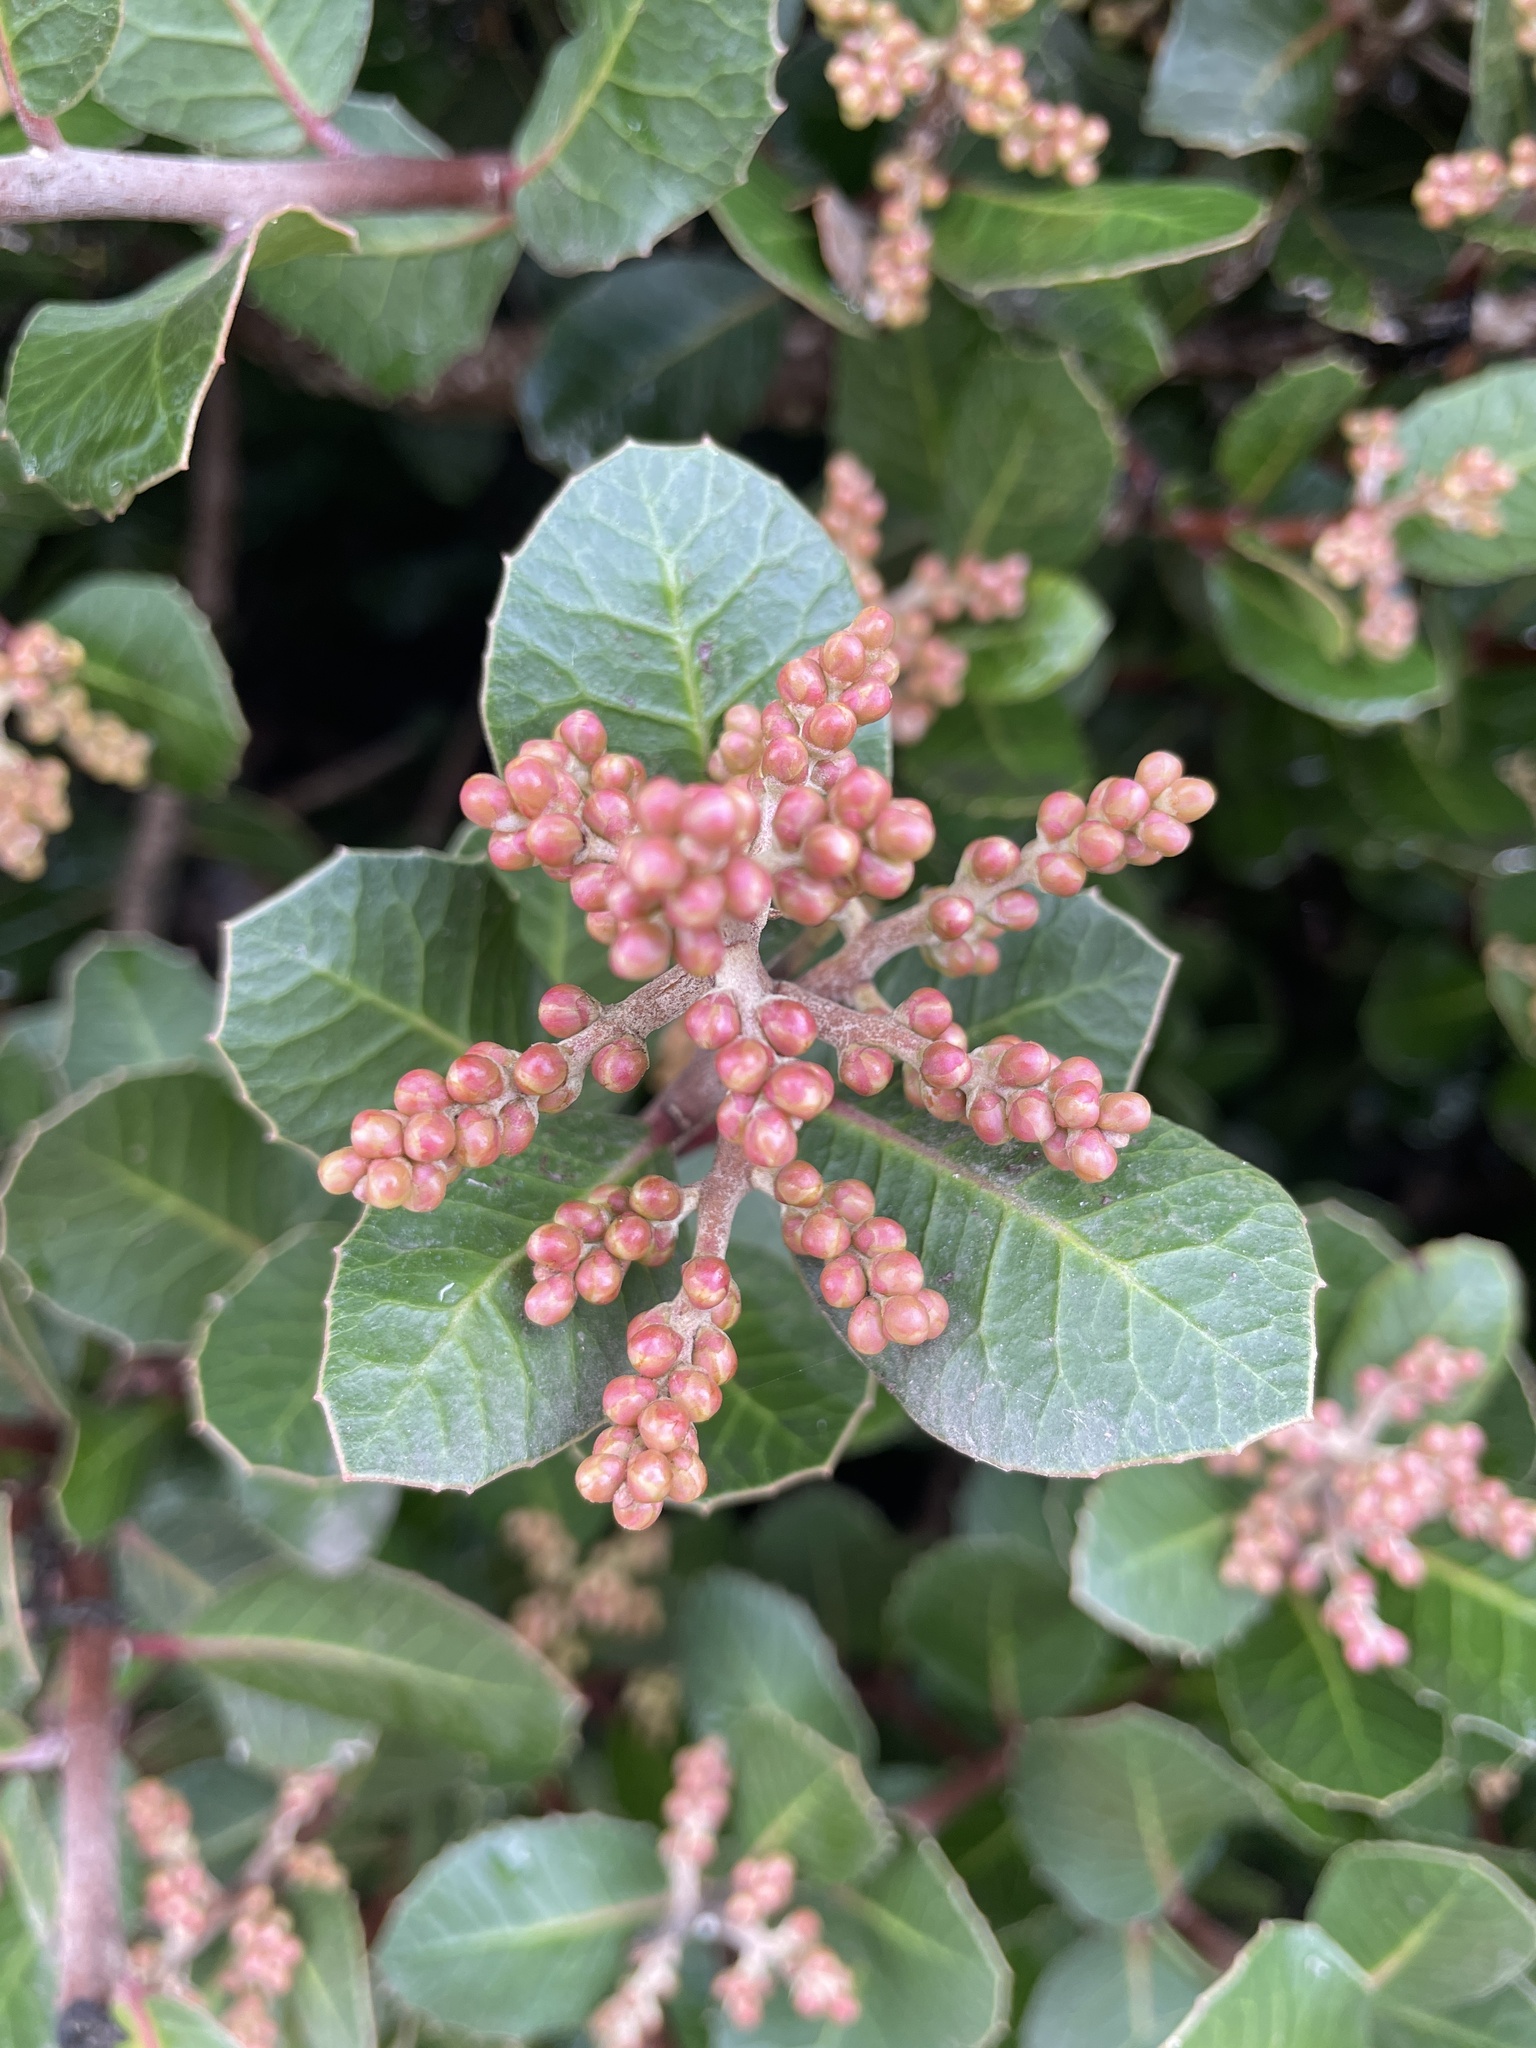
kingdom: Plantae
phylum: Tracheophyta
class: Magnoliopsida
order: Sapindales
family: Anacardiaceae
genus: Rhus
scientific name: Rhus integrifolia
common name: Lemonade sumac
